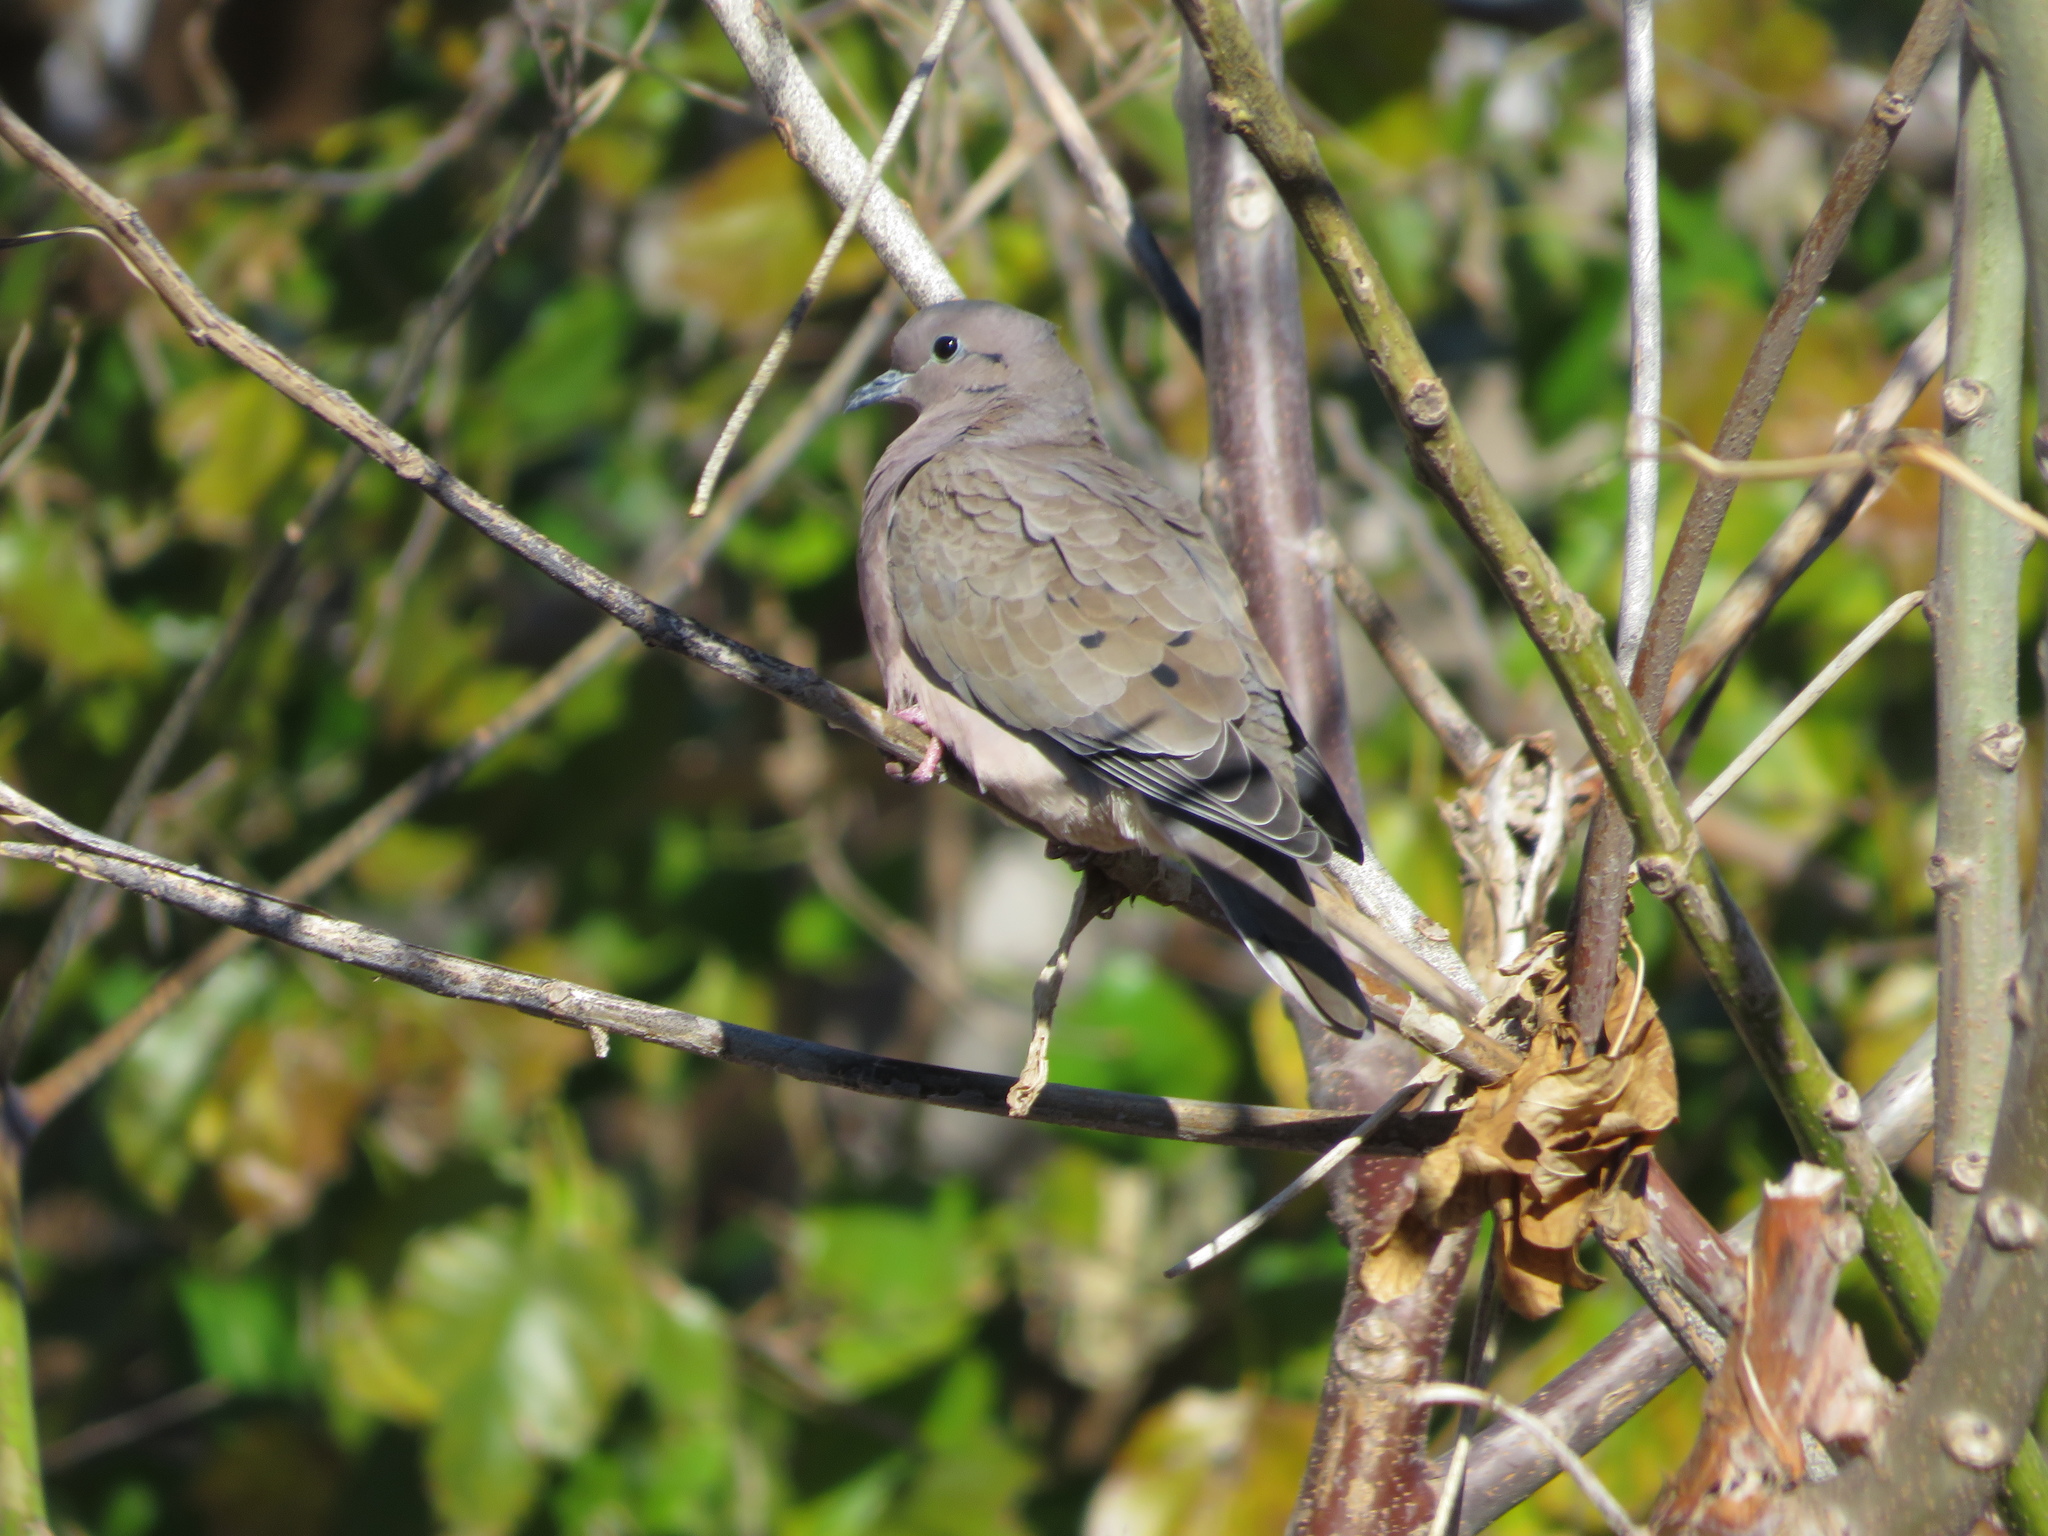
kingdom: Animalia
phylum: Chordata
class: Aves
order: Columbiformes
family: Columbidae
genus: Zenaida
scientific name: Zenaida auriculata
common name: Eared dove
